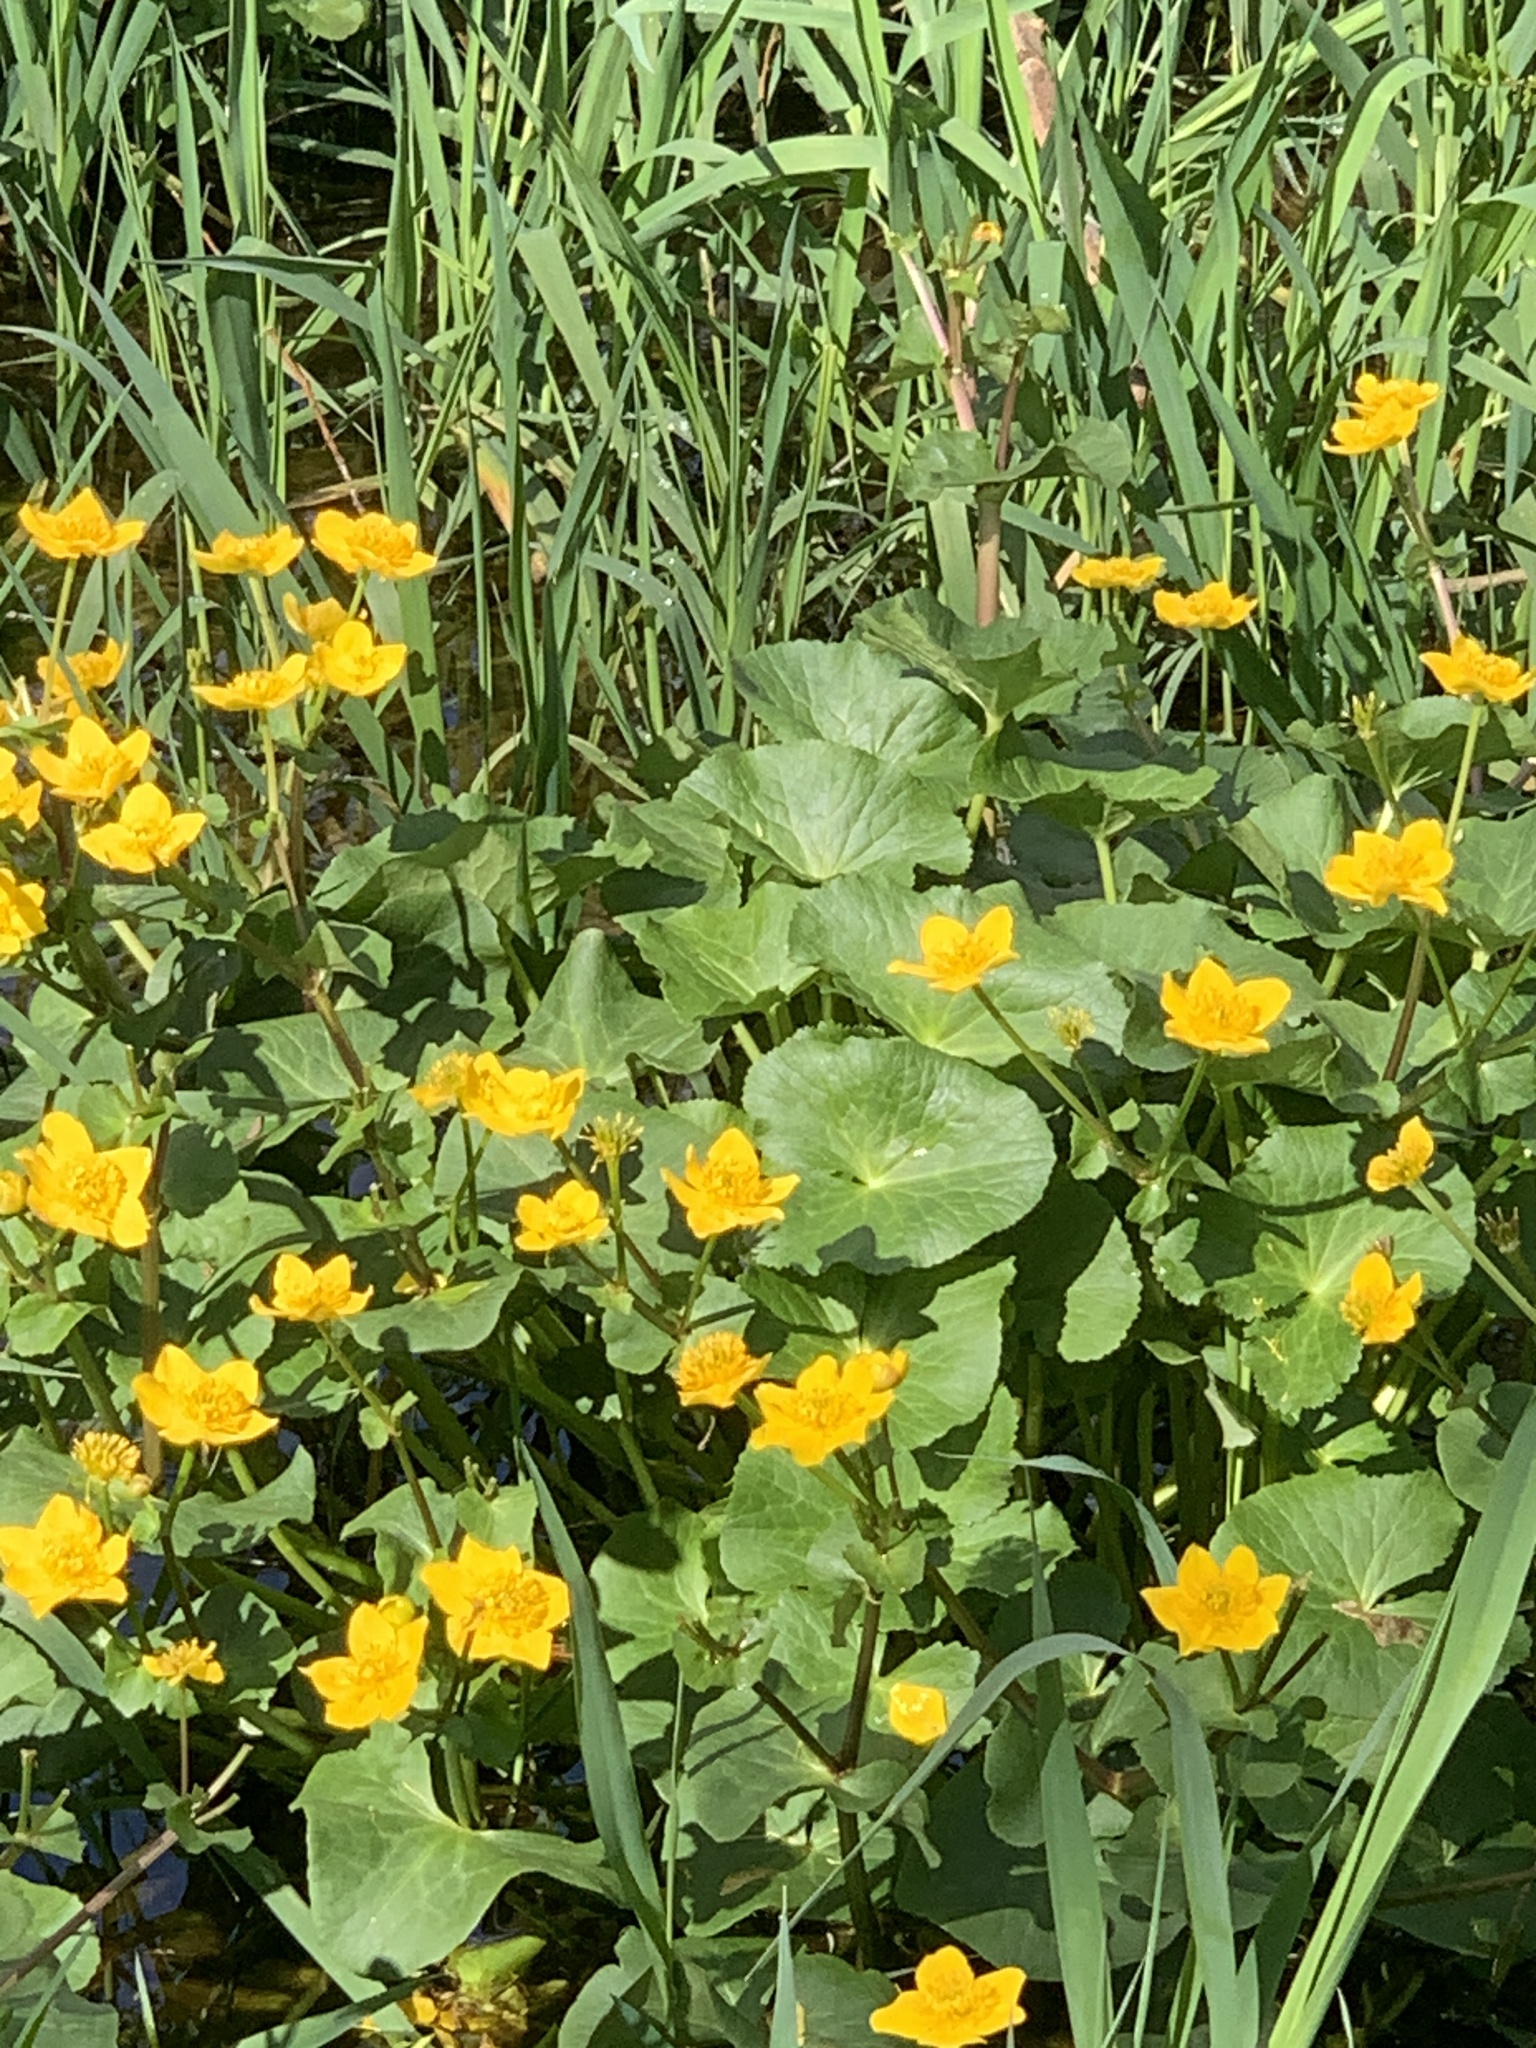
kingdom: Plantae
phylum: Tracheophyta
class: Magnoliopsida
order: Ranunculales
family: Ranunculaceae
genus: Caltha
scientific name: Caltha palustris
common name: Marsh marigold
